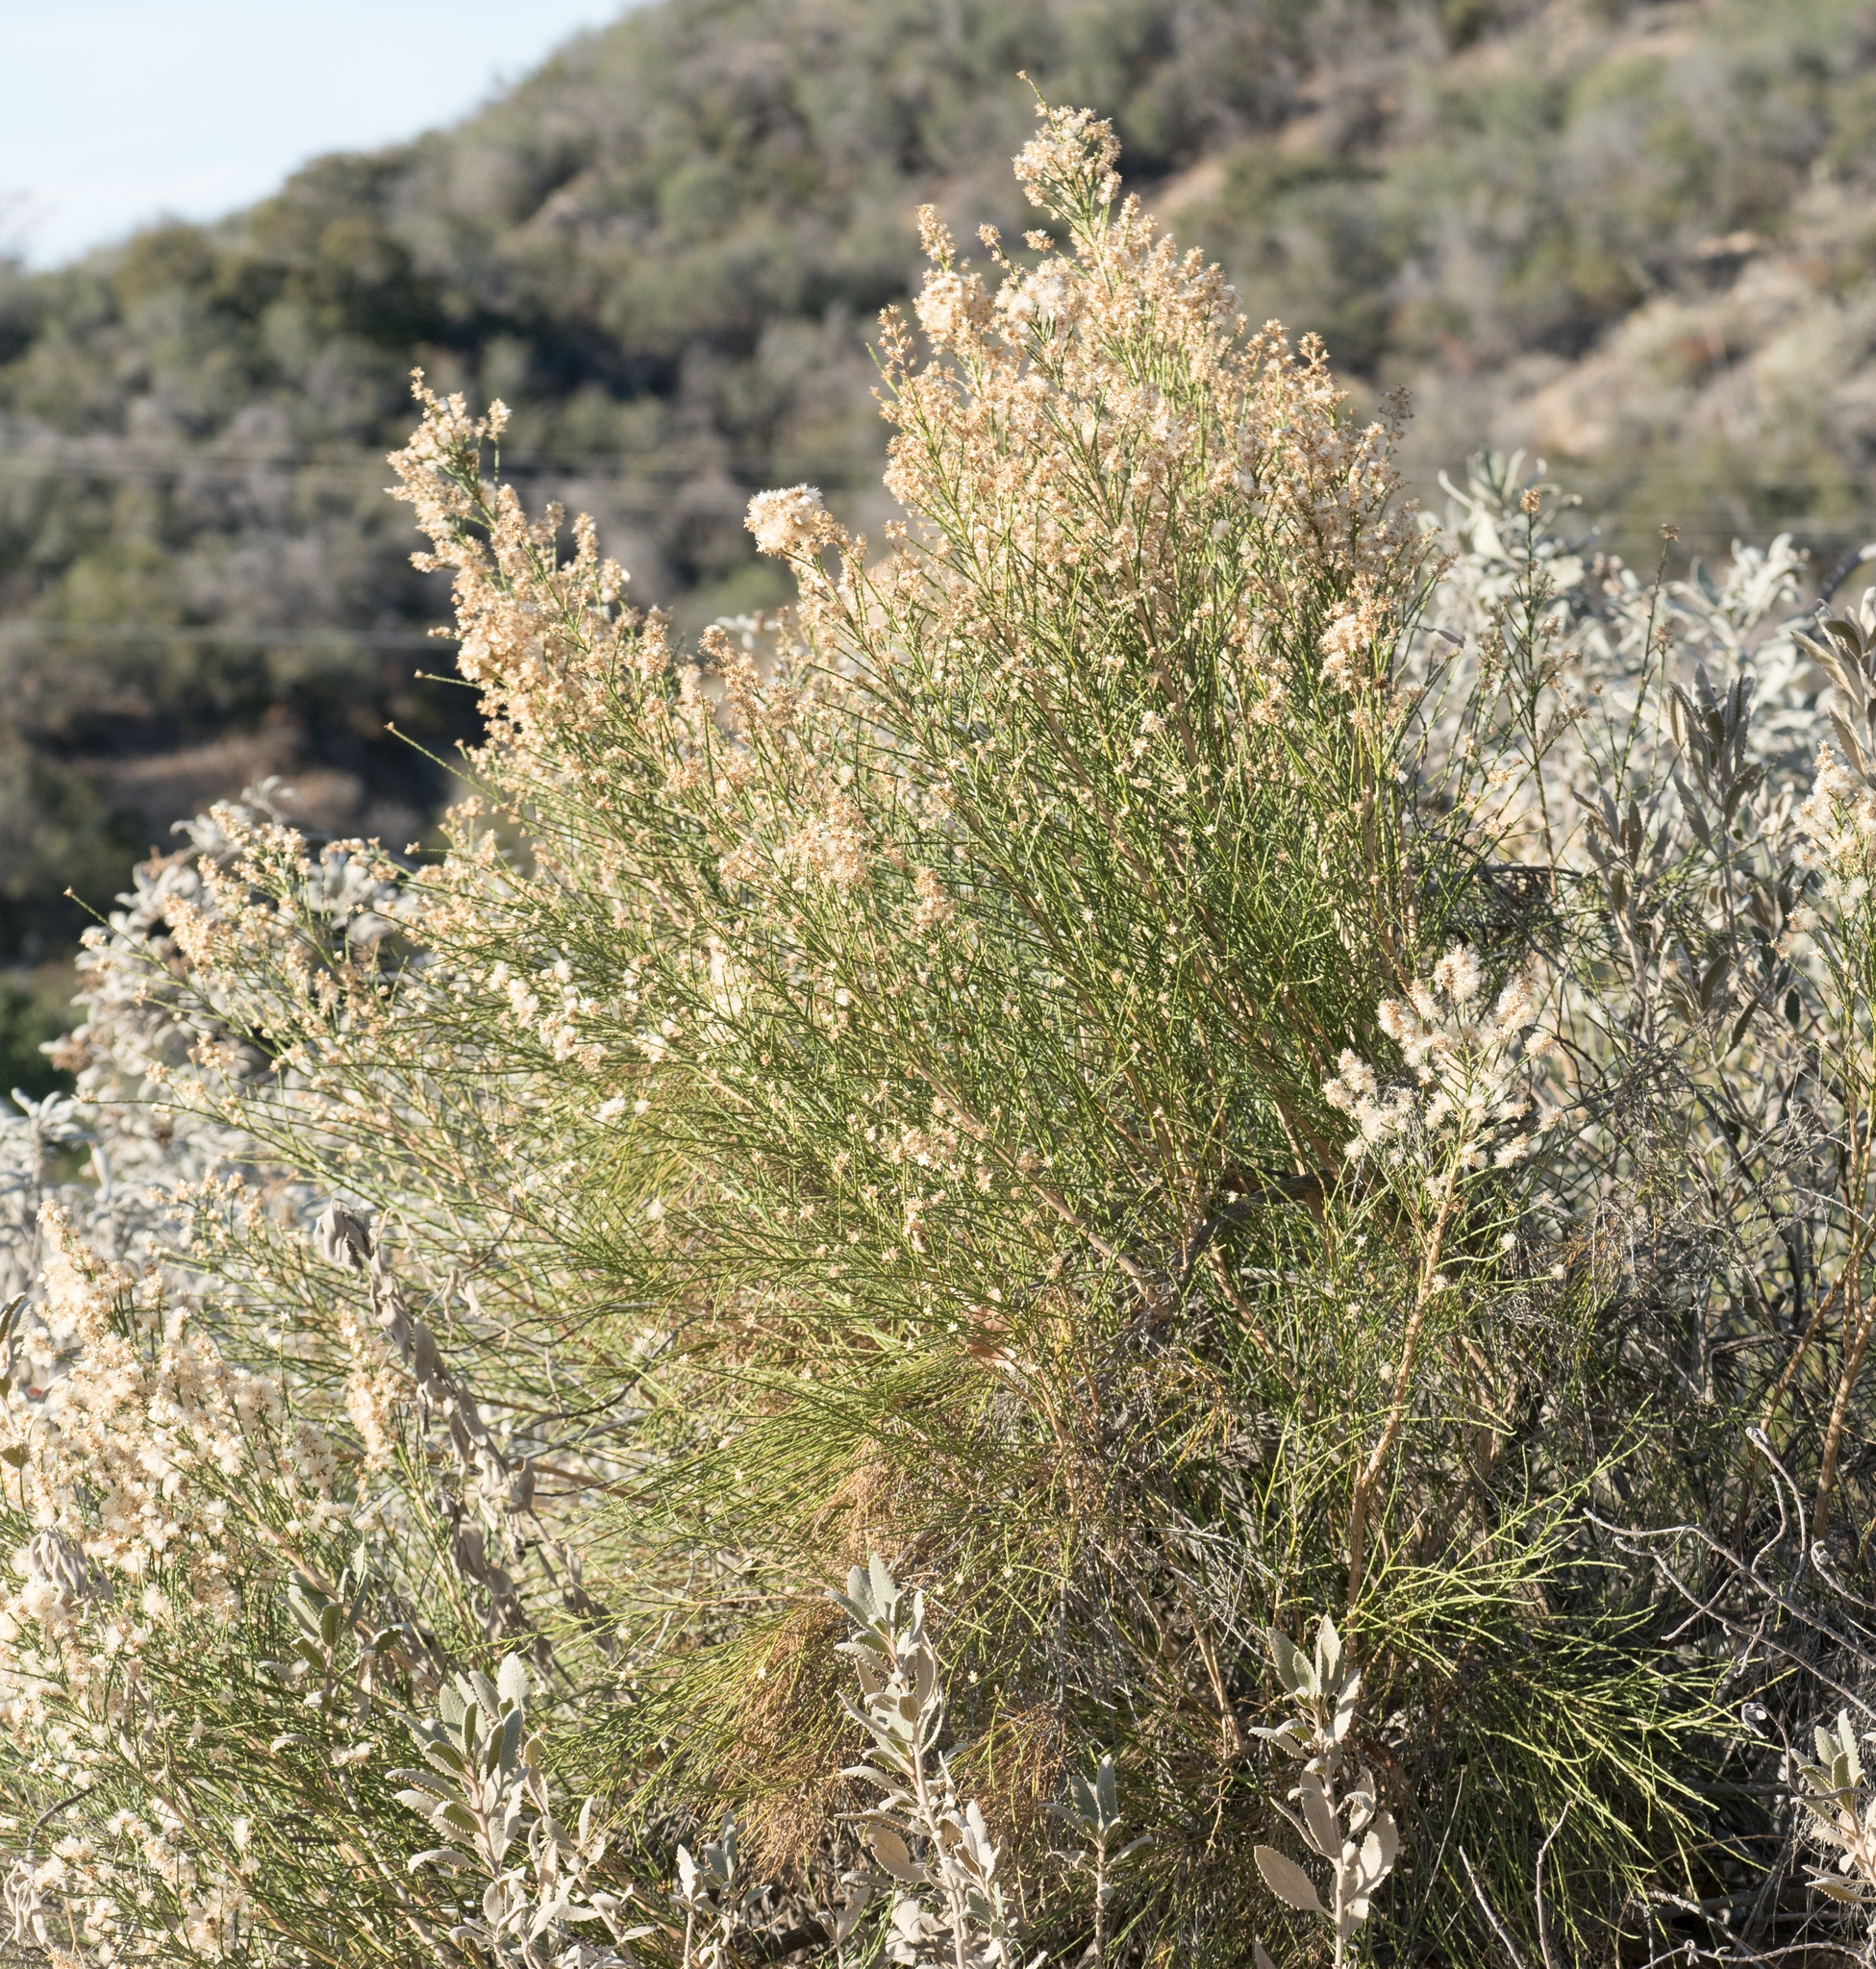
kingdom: Plantae
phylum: Tracheophyta
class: Magnoliopsida
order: Asterales
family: Asteraceae
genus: Lepidospartum
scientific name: Lepidospartum squamatum
